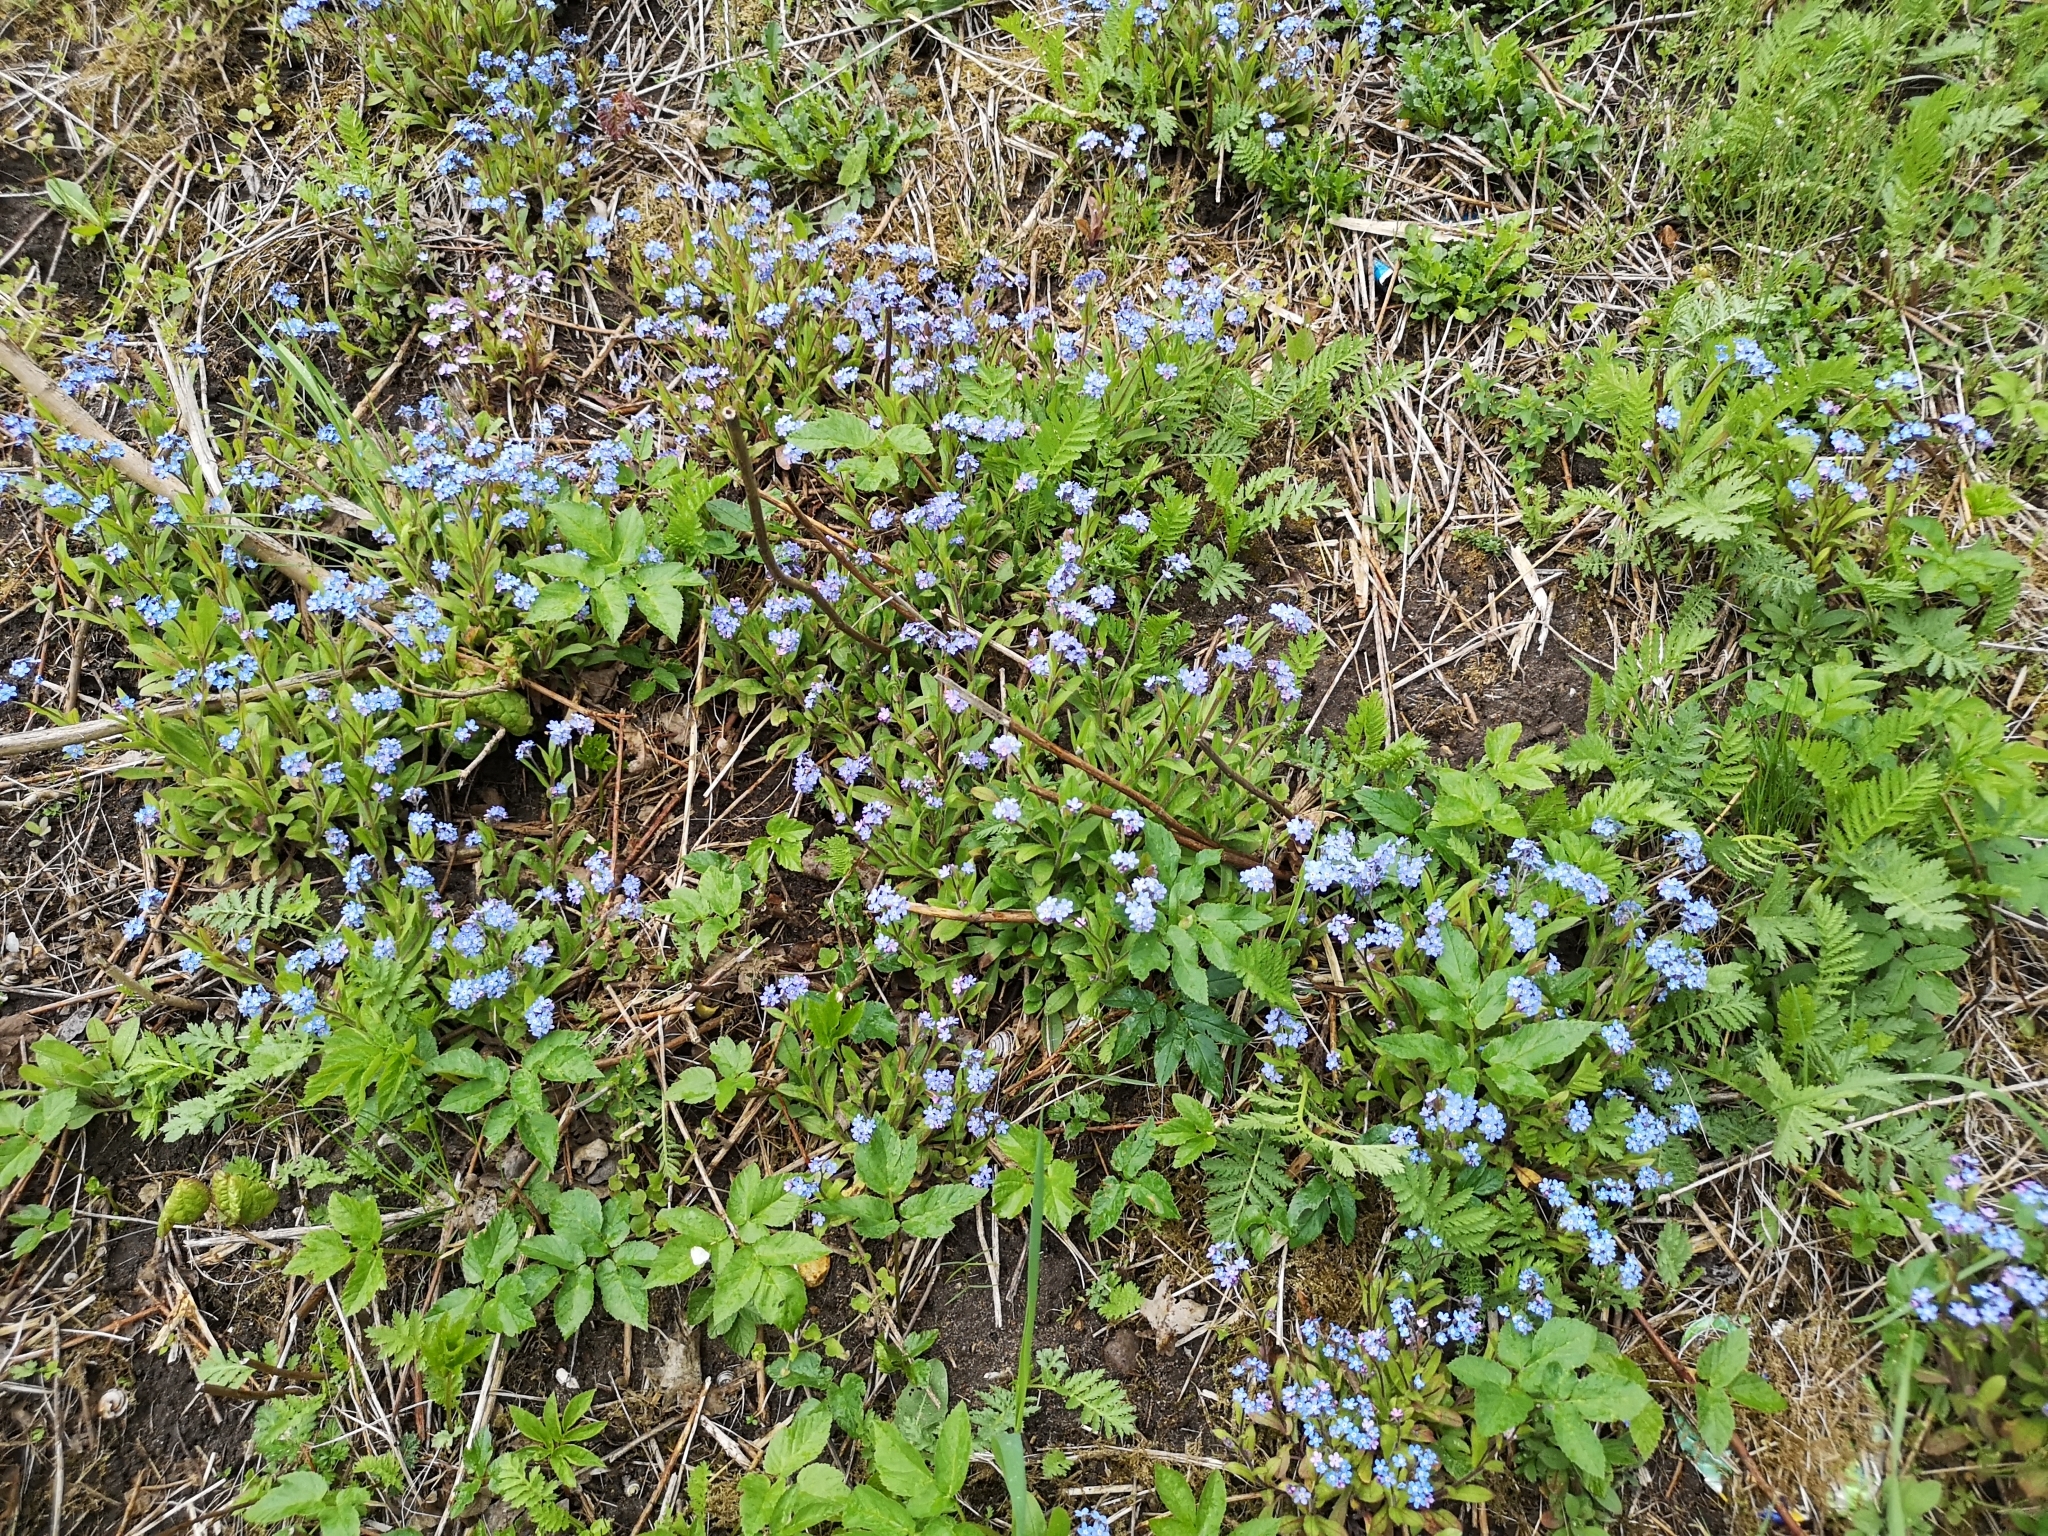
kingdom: Plantae
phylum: Tracheophyta
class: Magnoliopsida
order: Boraginales
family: Boraginaceae
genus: Myosotis
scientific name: Myosotis sylvatica
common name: Wood forget-me-not
